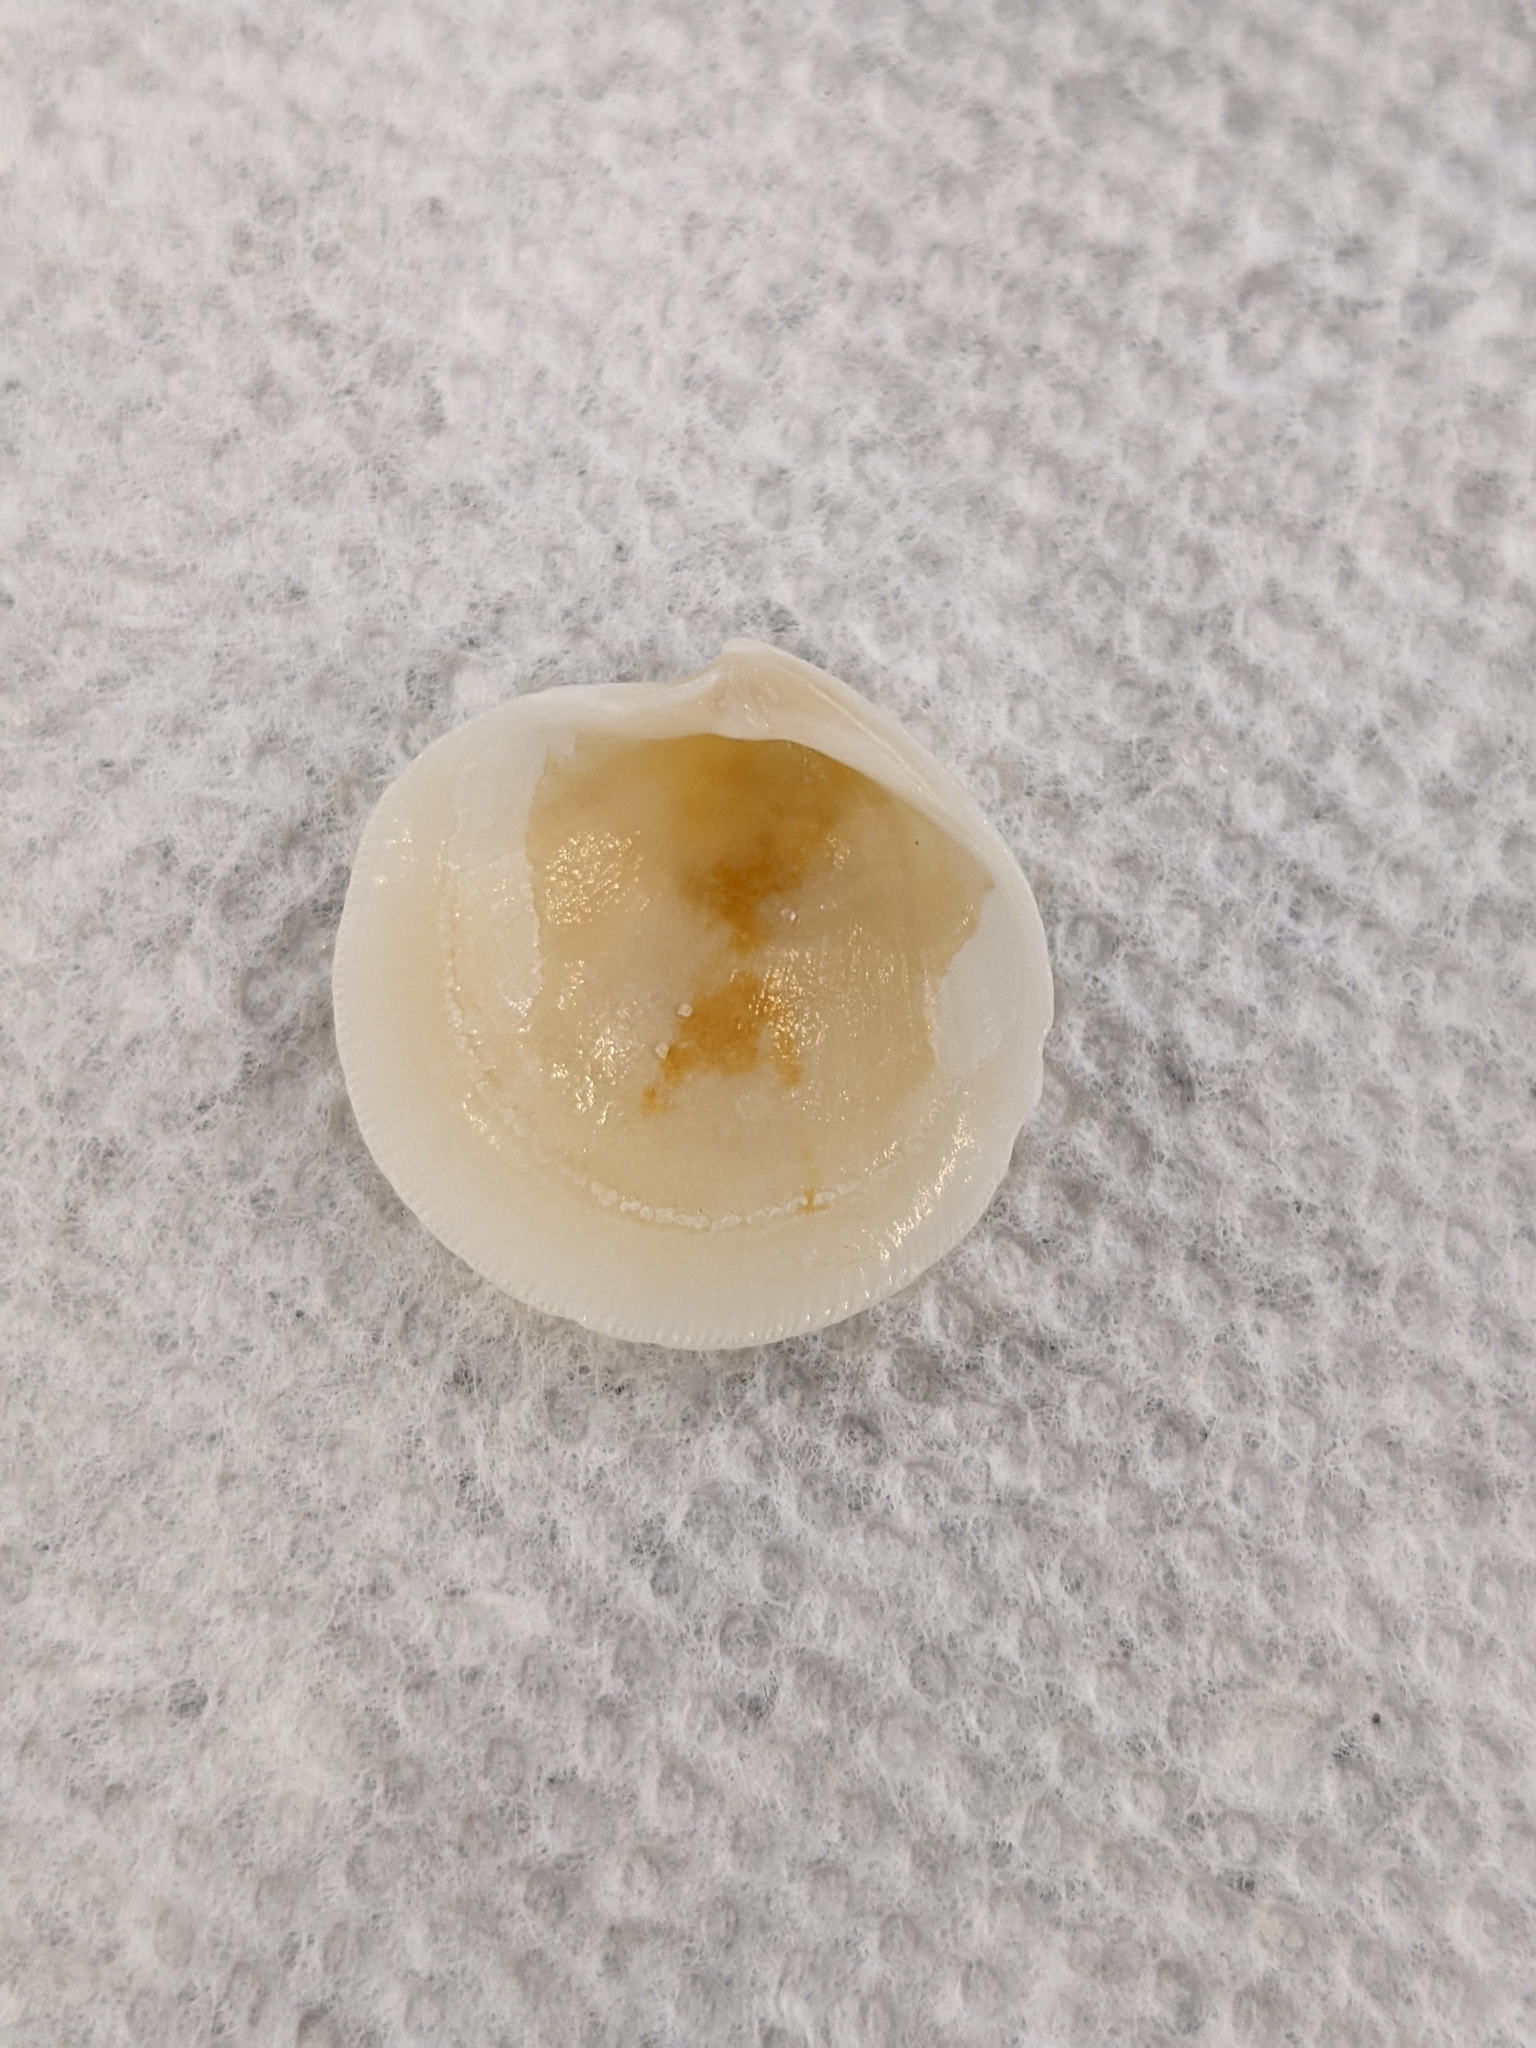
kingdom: Animalia
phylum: Mollusca
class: Bivalvia
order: Lucinida
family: Lucinidae
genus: Callucina
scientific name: Callucina keenae
